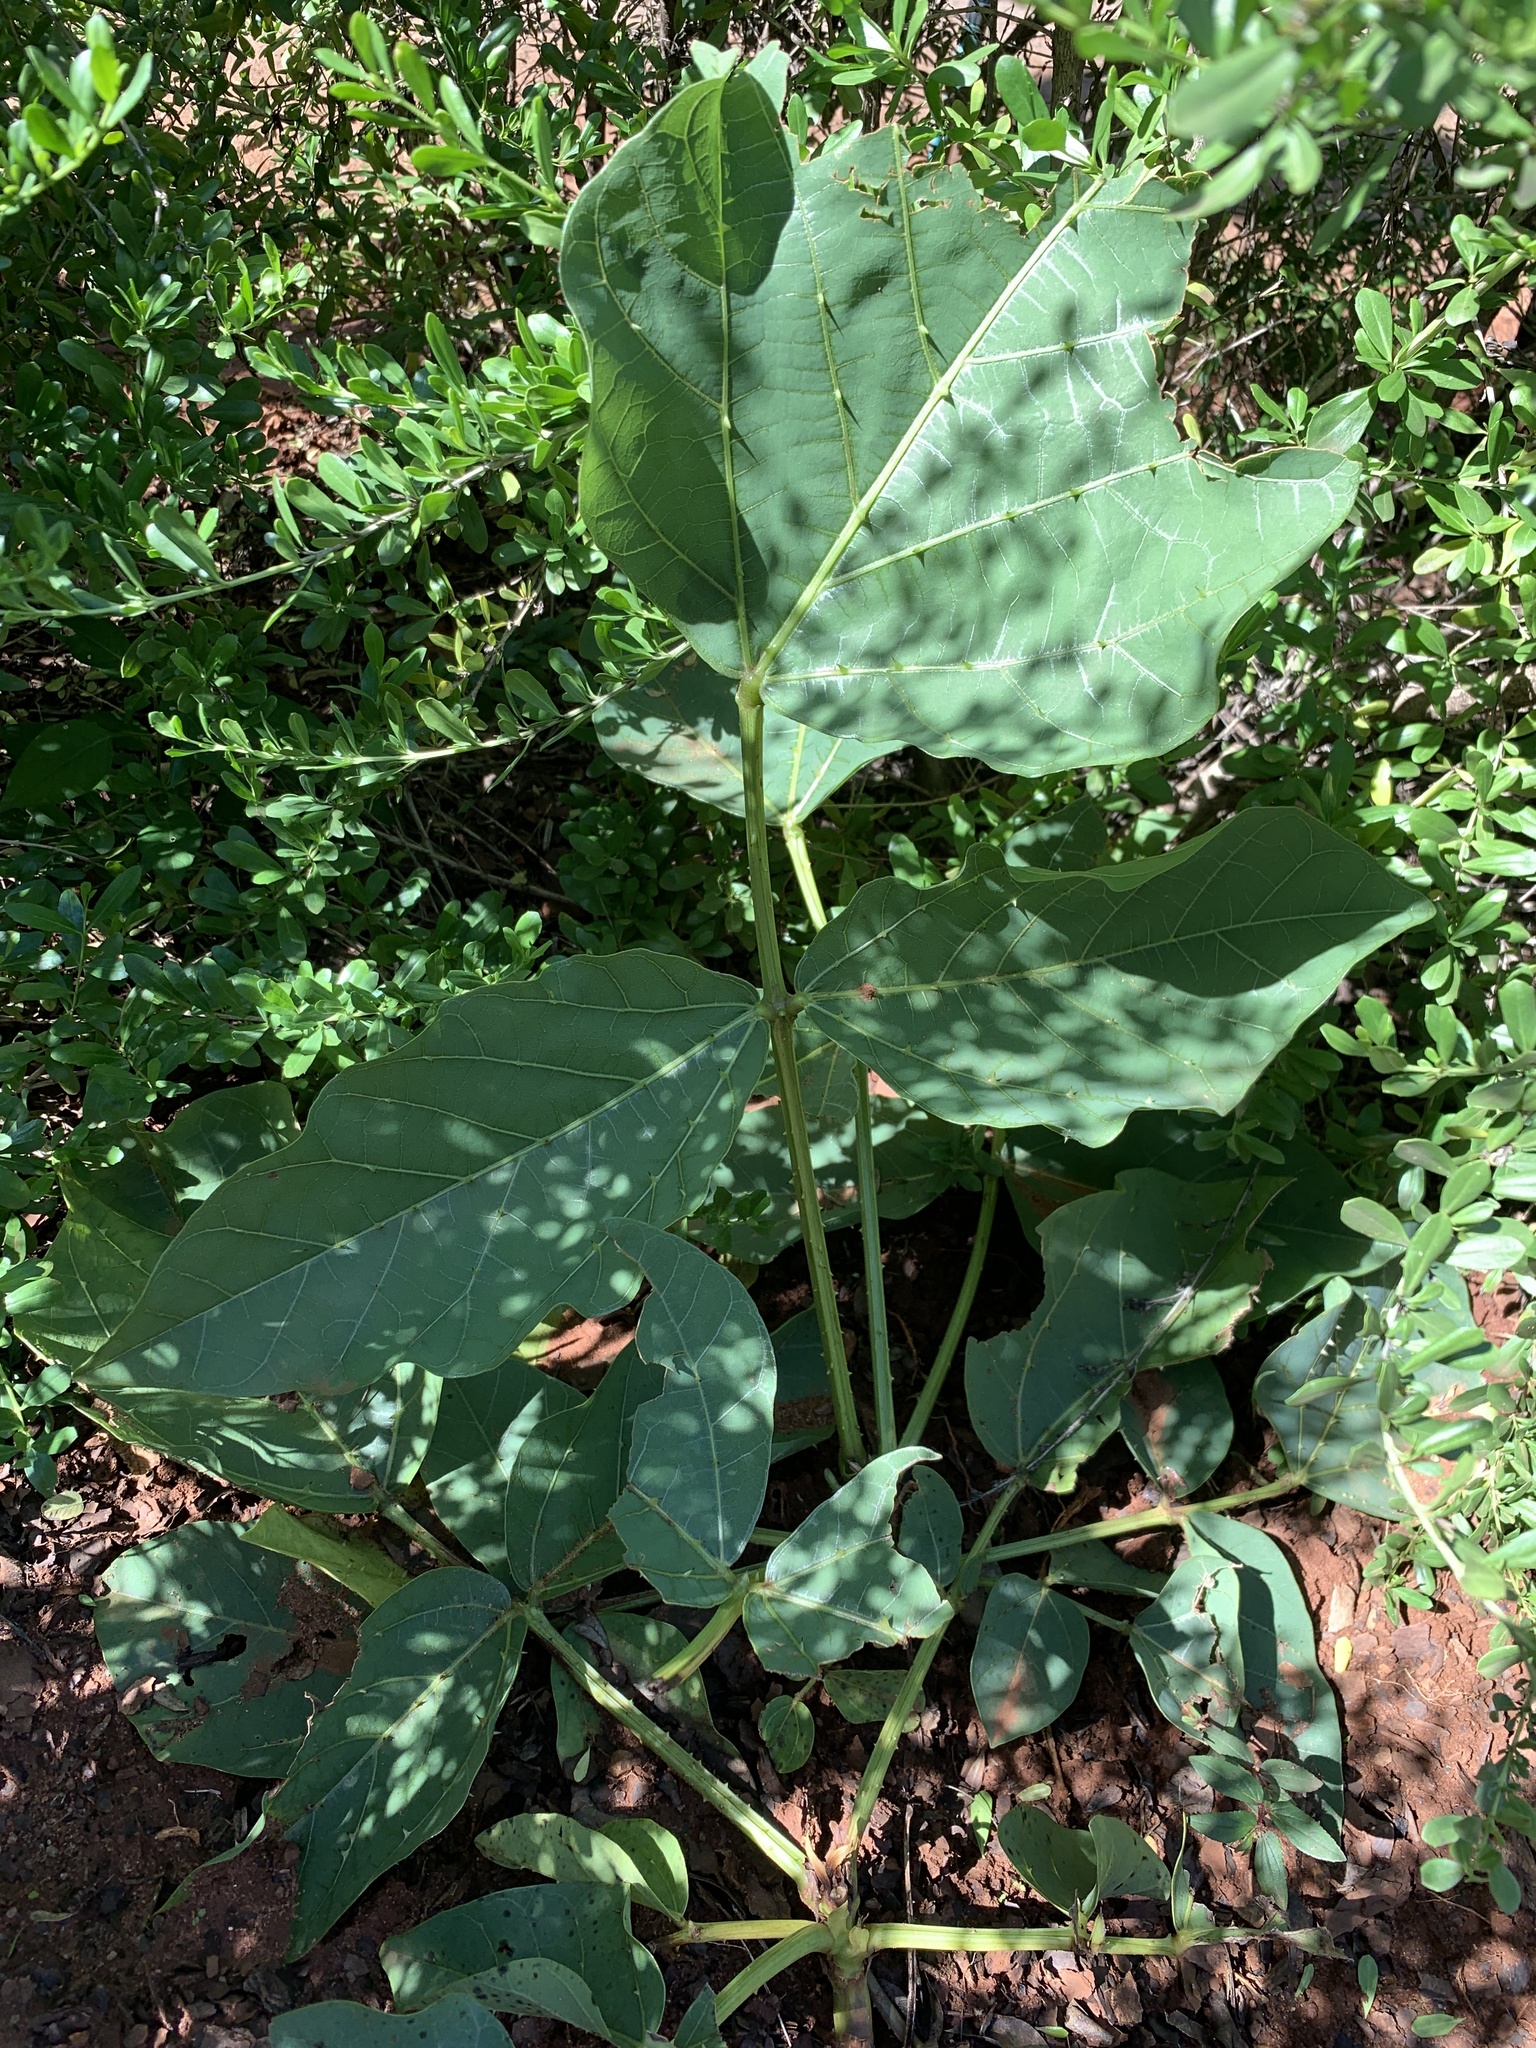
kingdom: Plantae
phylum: Tracheophyta
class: Magnoliopsida
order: Fabales
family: Fabaceae
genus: Erythrina
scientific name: Erythrina zeyheri
